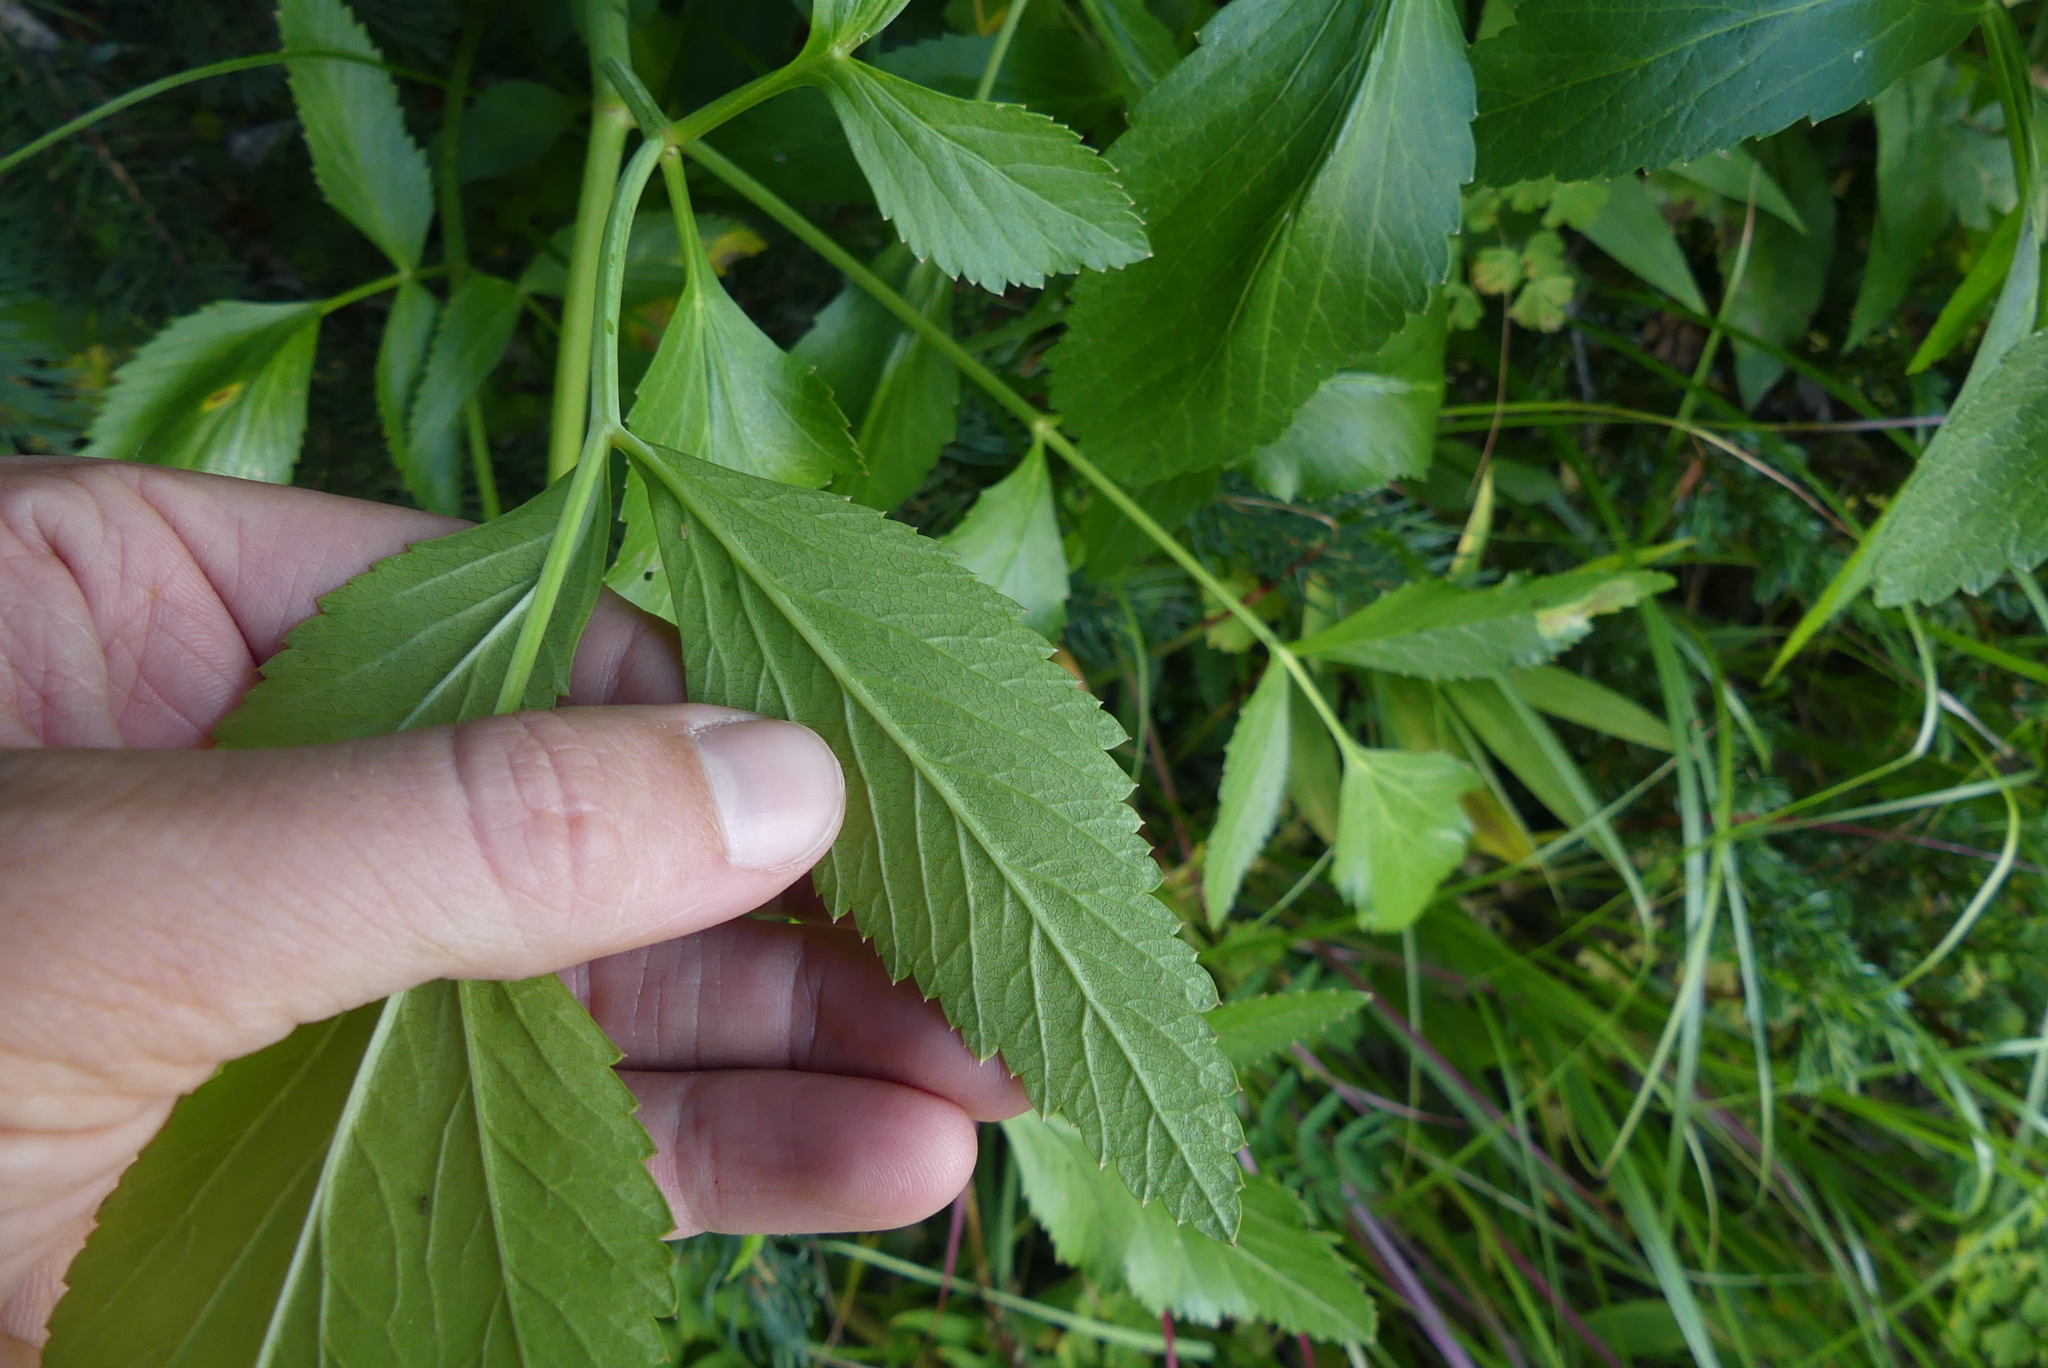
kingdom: Plantae
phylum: Tracheophyta
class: Magnoliopsida
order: Apiales
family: Apiaceae
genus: Angelica
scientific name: Angelica arguta
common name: Lyall's angelica
